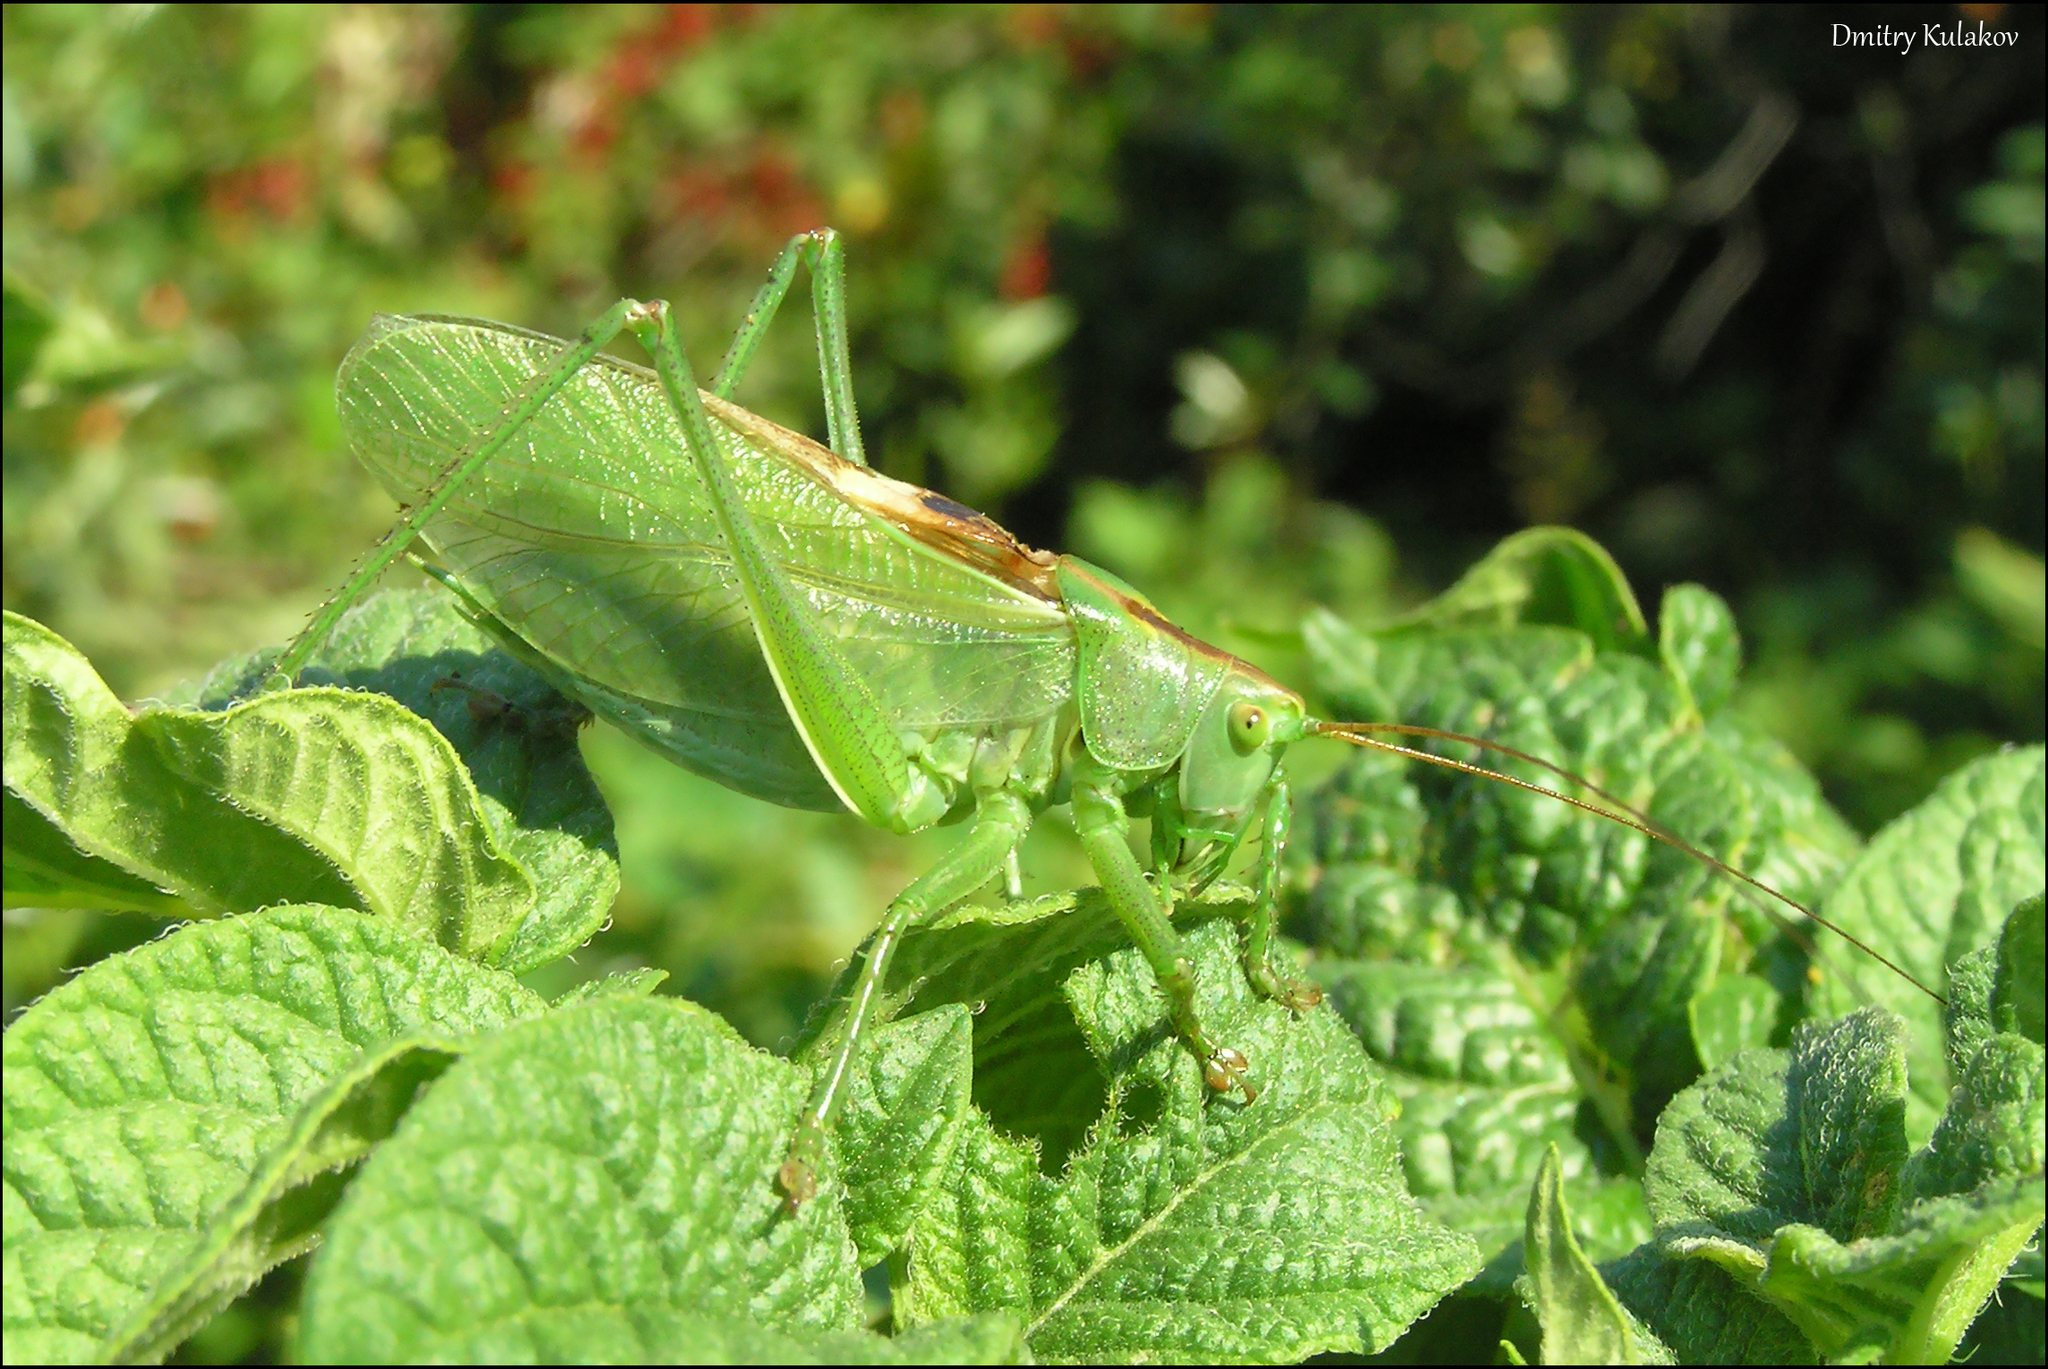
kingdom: Animalia
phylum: Arthropoda
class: Insecta
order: Orthoptera
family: Tettigoniidae
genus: Tettigonia
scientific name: Tettigonia cantans
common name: Upland green bush-cricket
